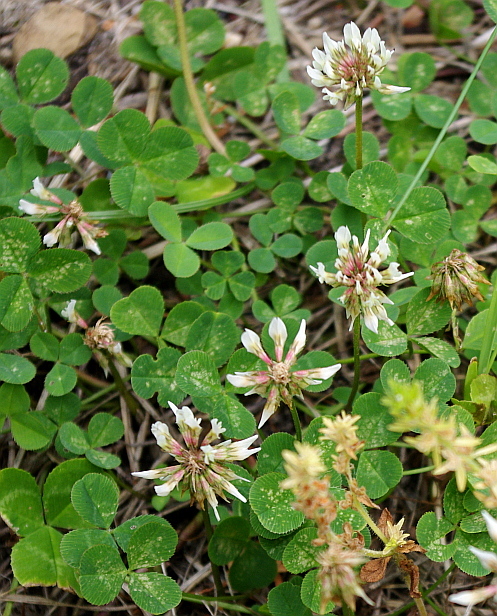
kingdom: Plantae
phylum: Tracheophyta
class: Magnoliopsida
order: Fabales
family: Fabaceae
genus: Trifolium
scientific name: Trifolium repens
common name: White clover
